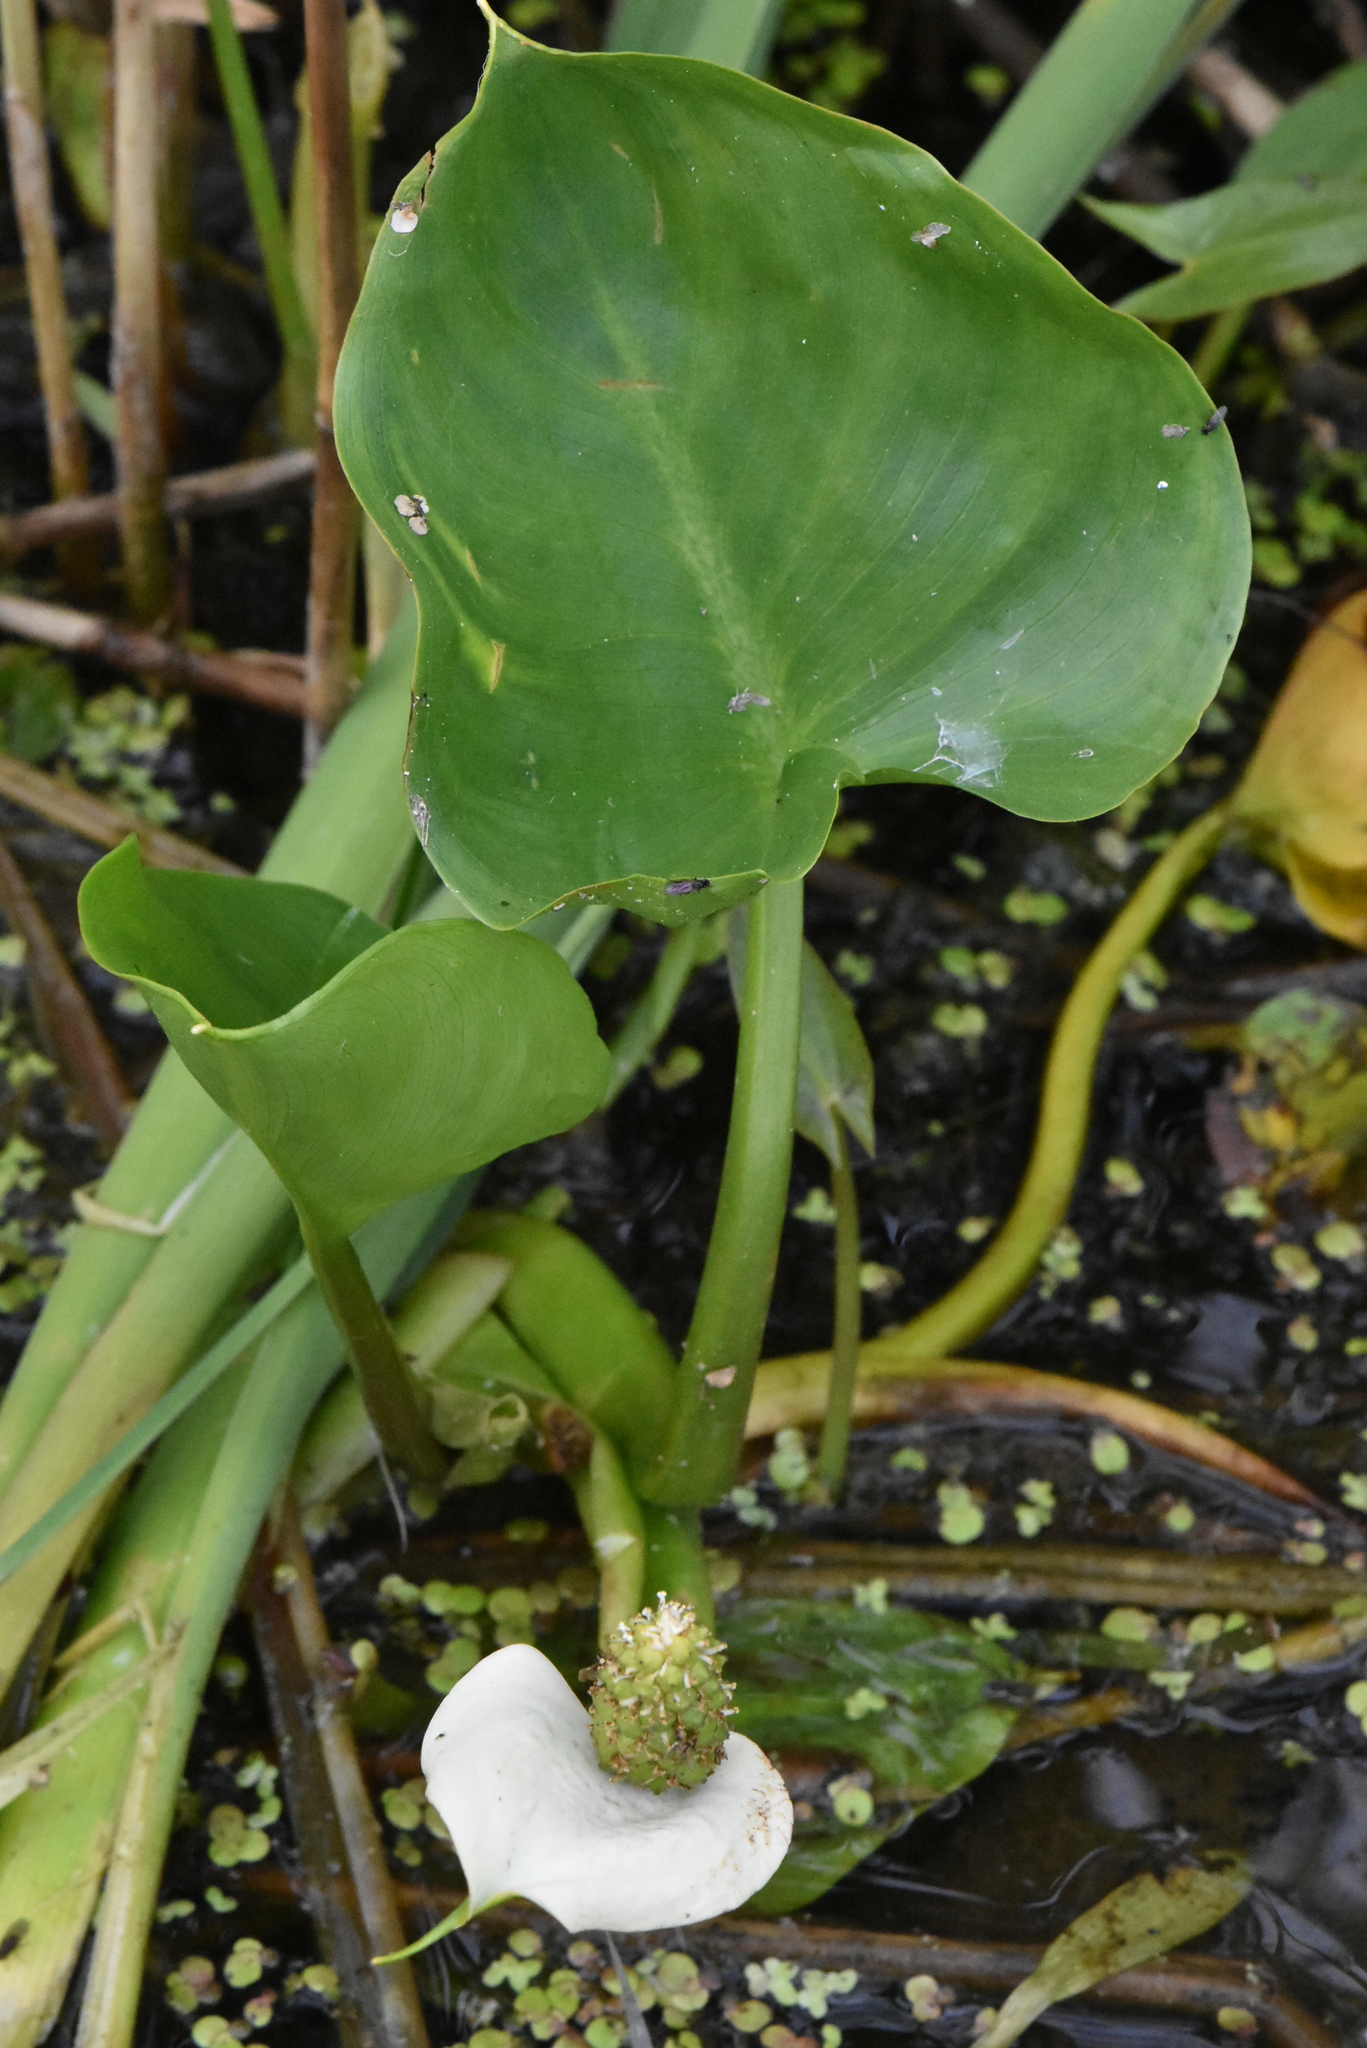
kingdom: Plantae
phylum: Tracheophyta
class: Liliopsida
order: Alismatales
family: Araceae
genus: Calla
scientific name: Calla palustris
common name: Bog arum
